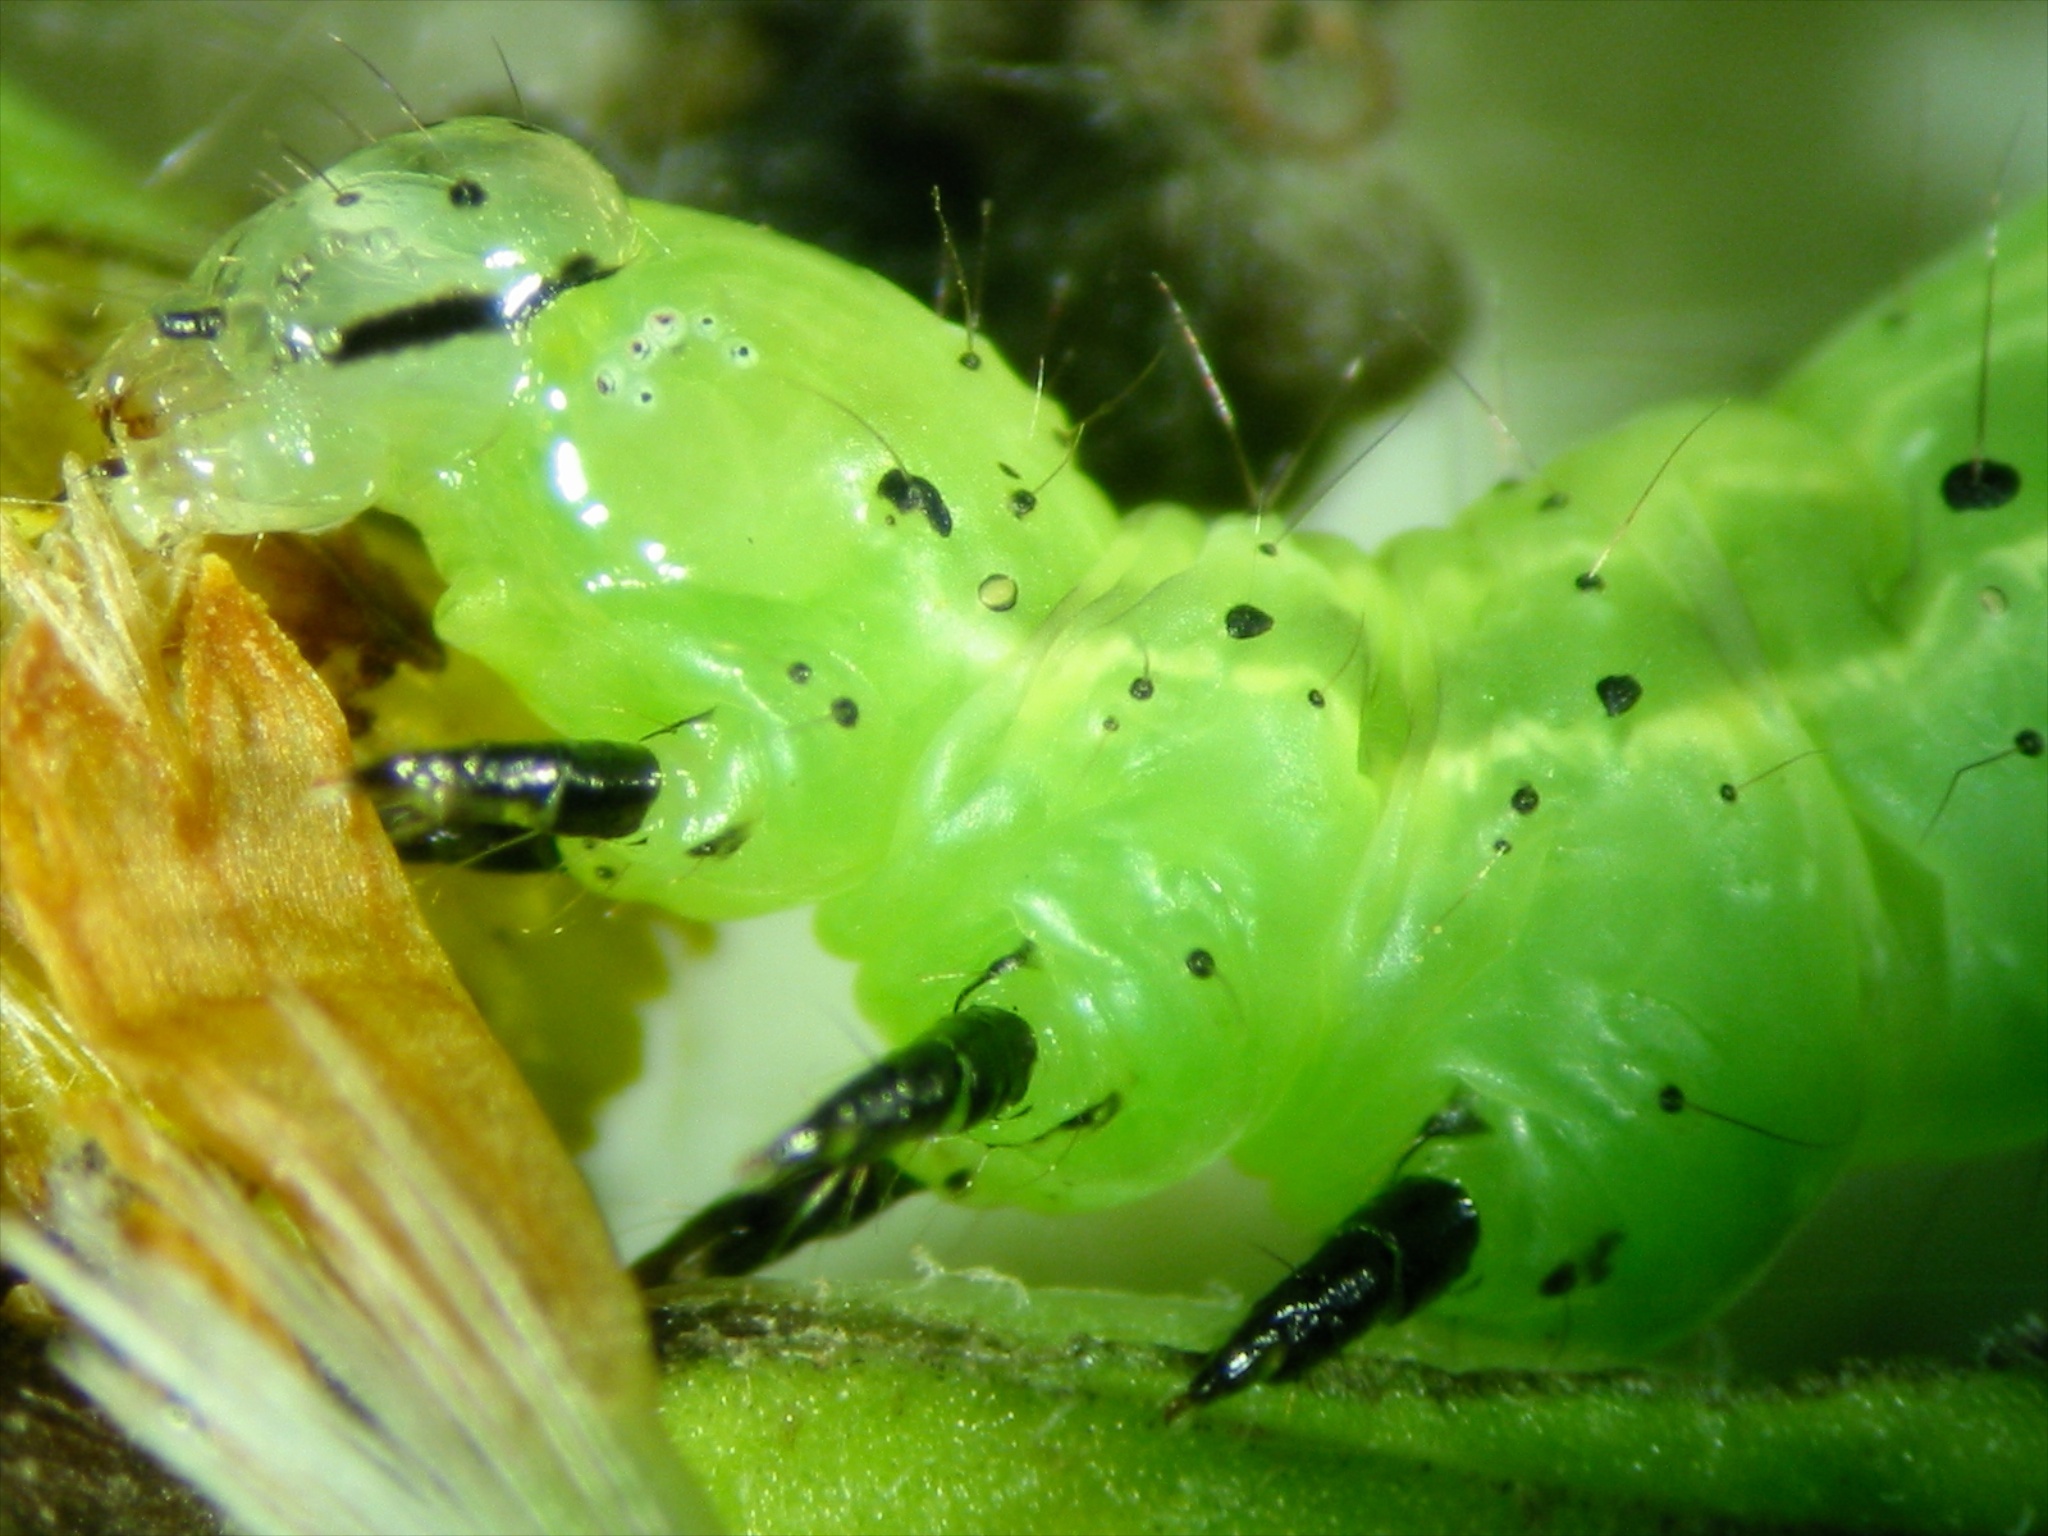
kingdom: Animalia
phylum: Arthropoda
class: Insecta
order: Lepidoptera
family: Noctuidae
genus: Chrysodeixis
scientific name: Chrysodeixis eriosoma
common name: Green garden looper
